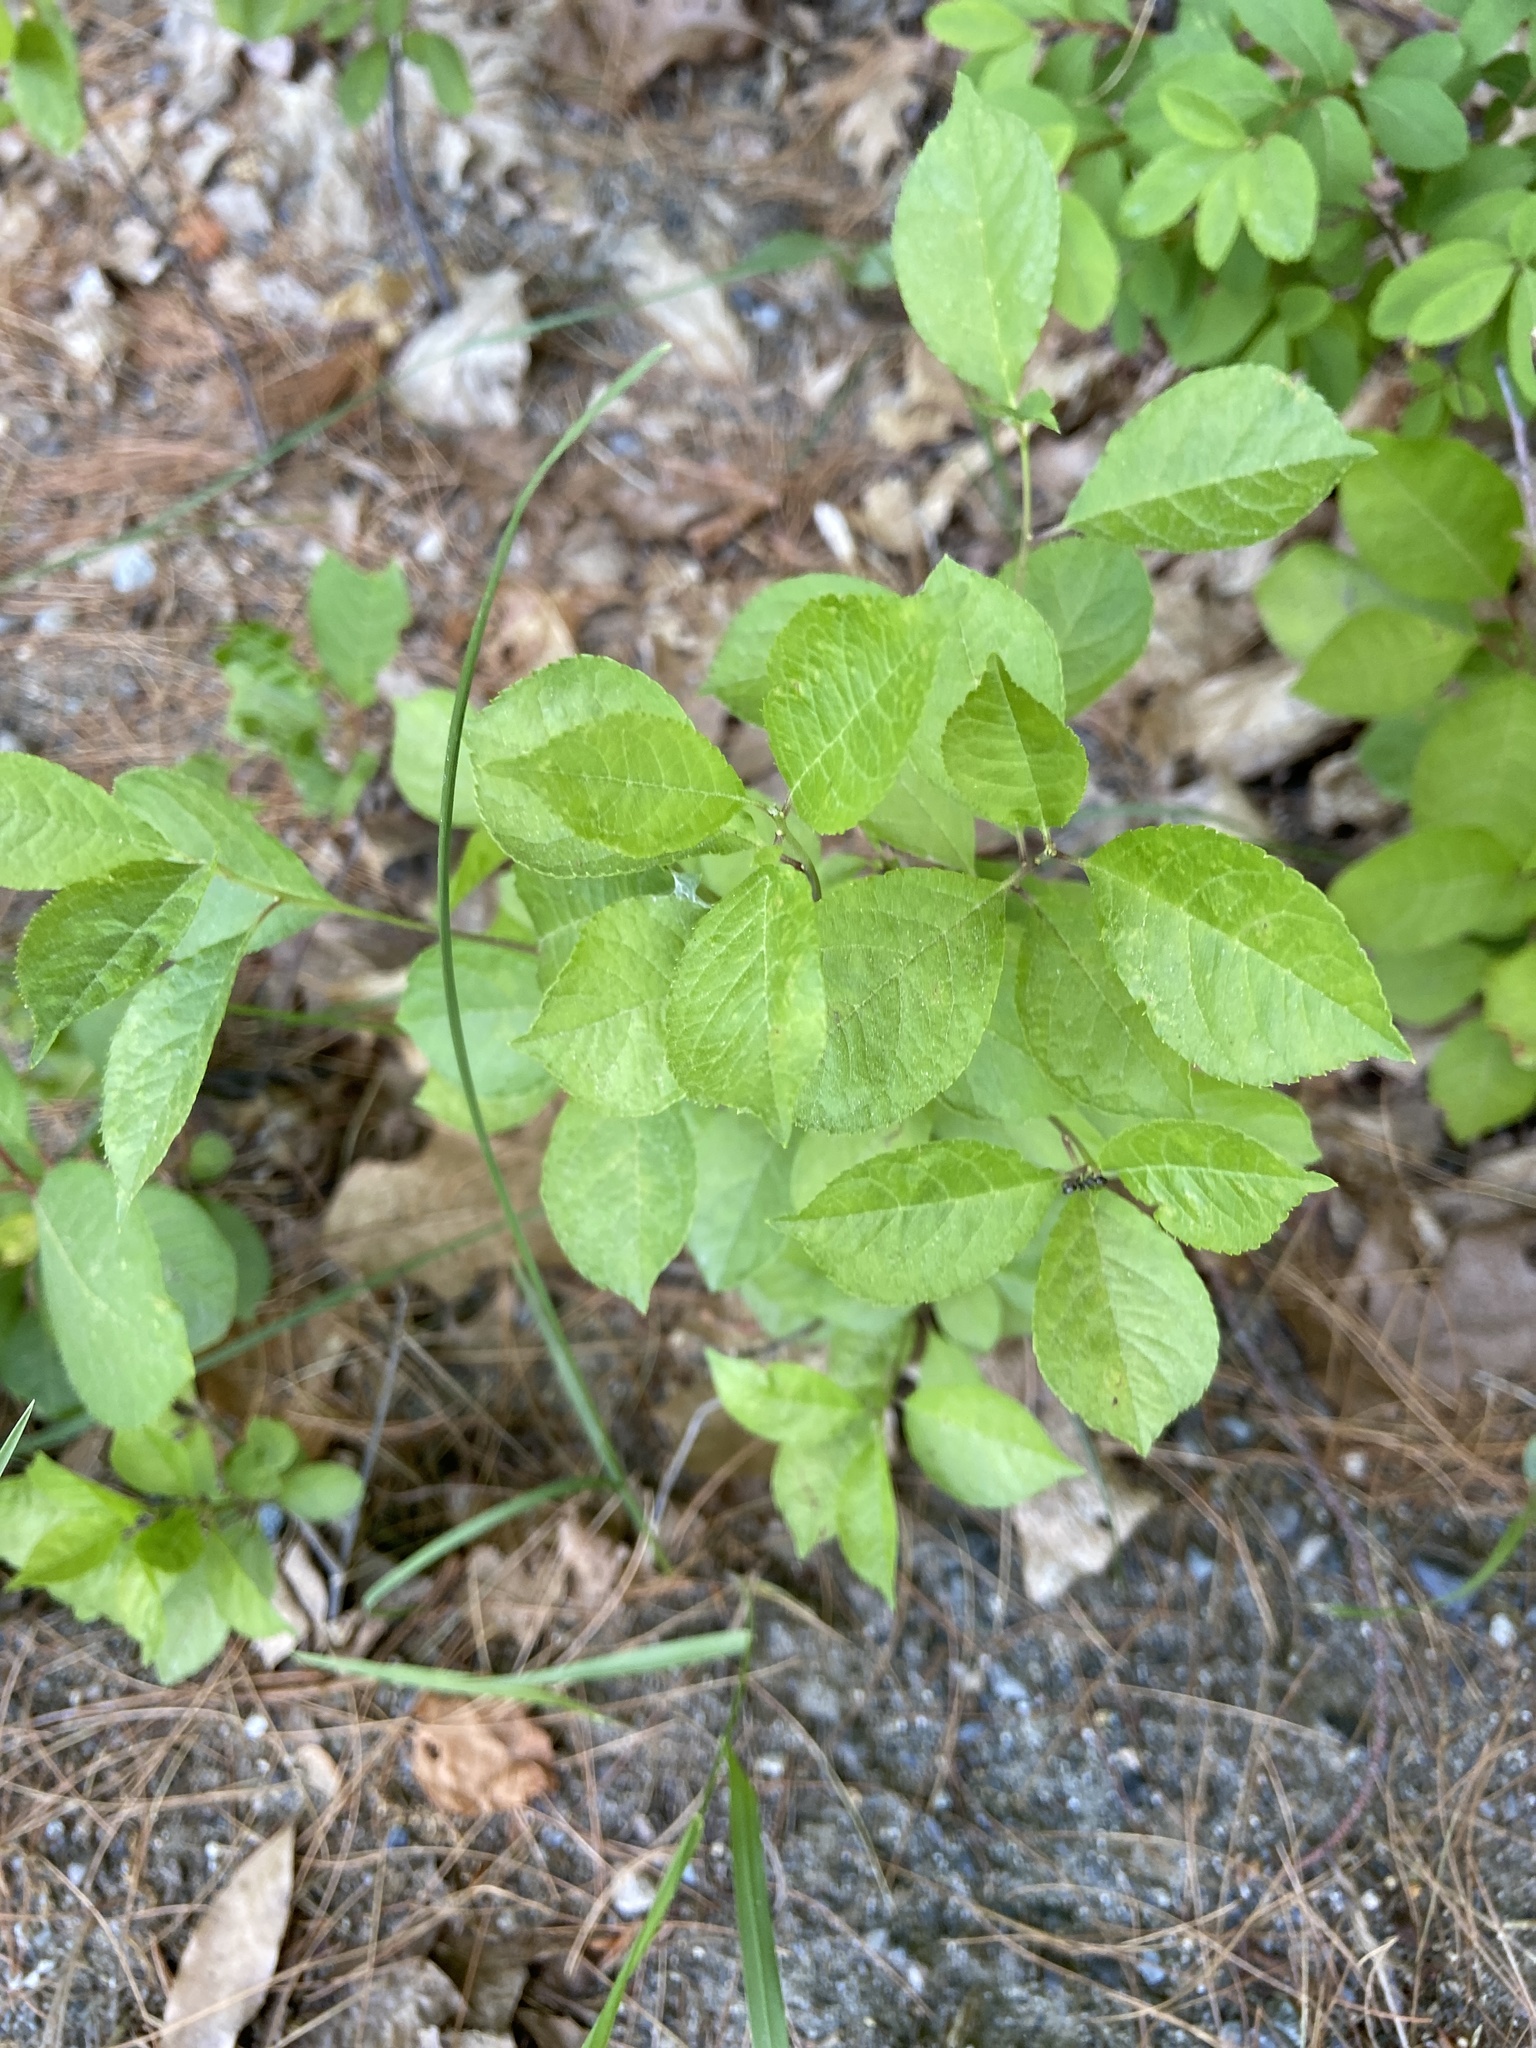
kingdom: Plantae
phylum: Tracheophyta
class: Magnoliopsida
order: Aquifoliales
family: Aquifoliaceae
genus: Ilex
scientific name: Ilex verticillata
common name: Virginia winterberry
